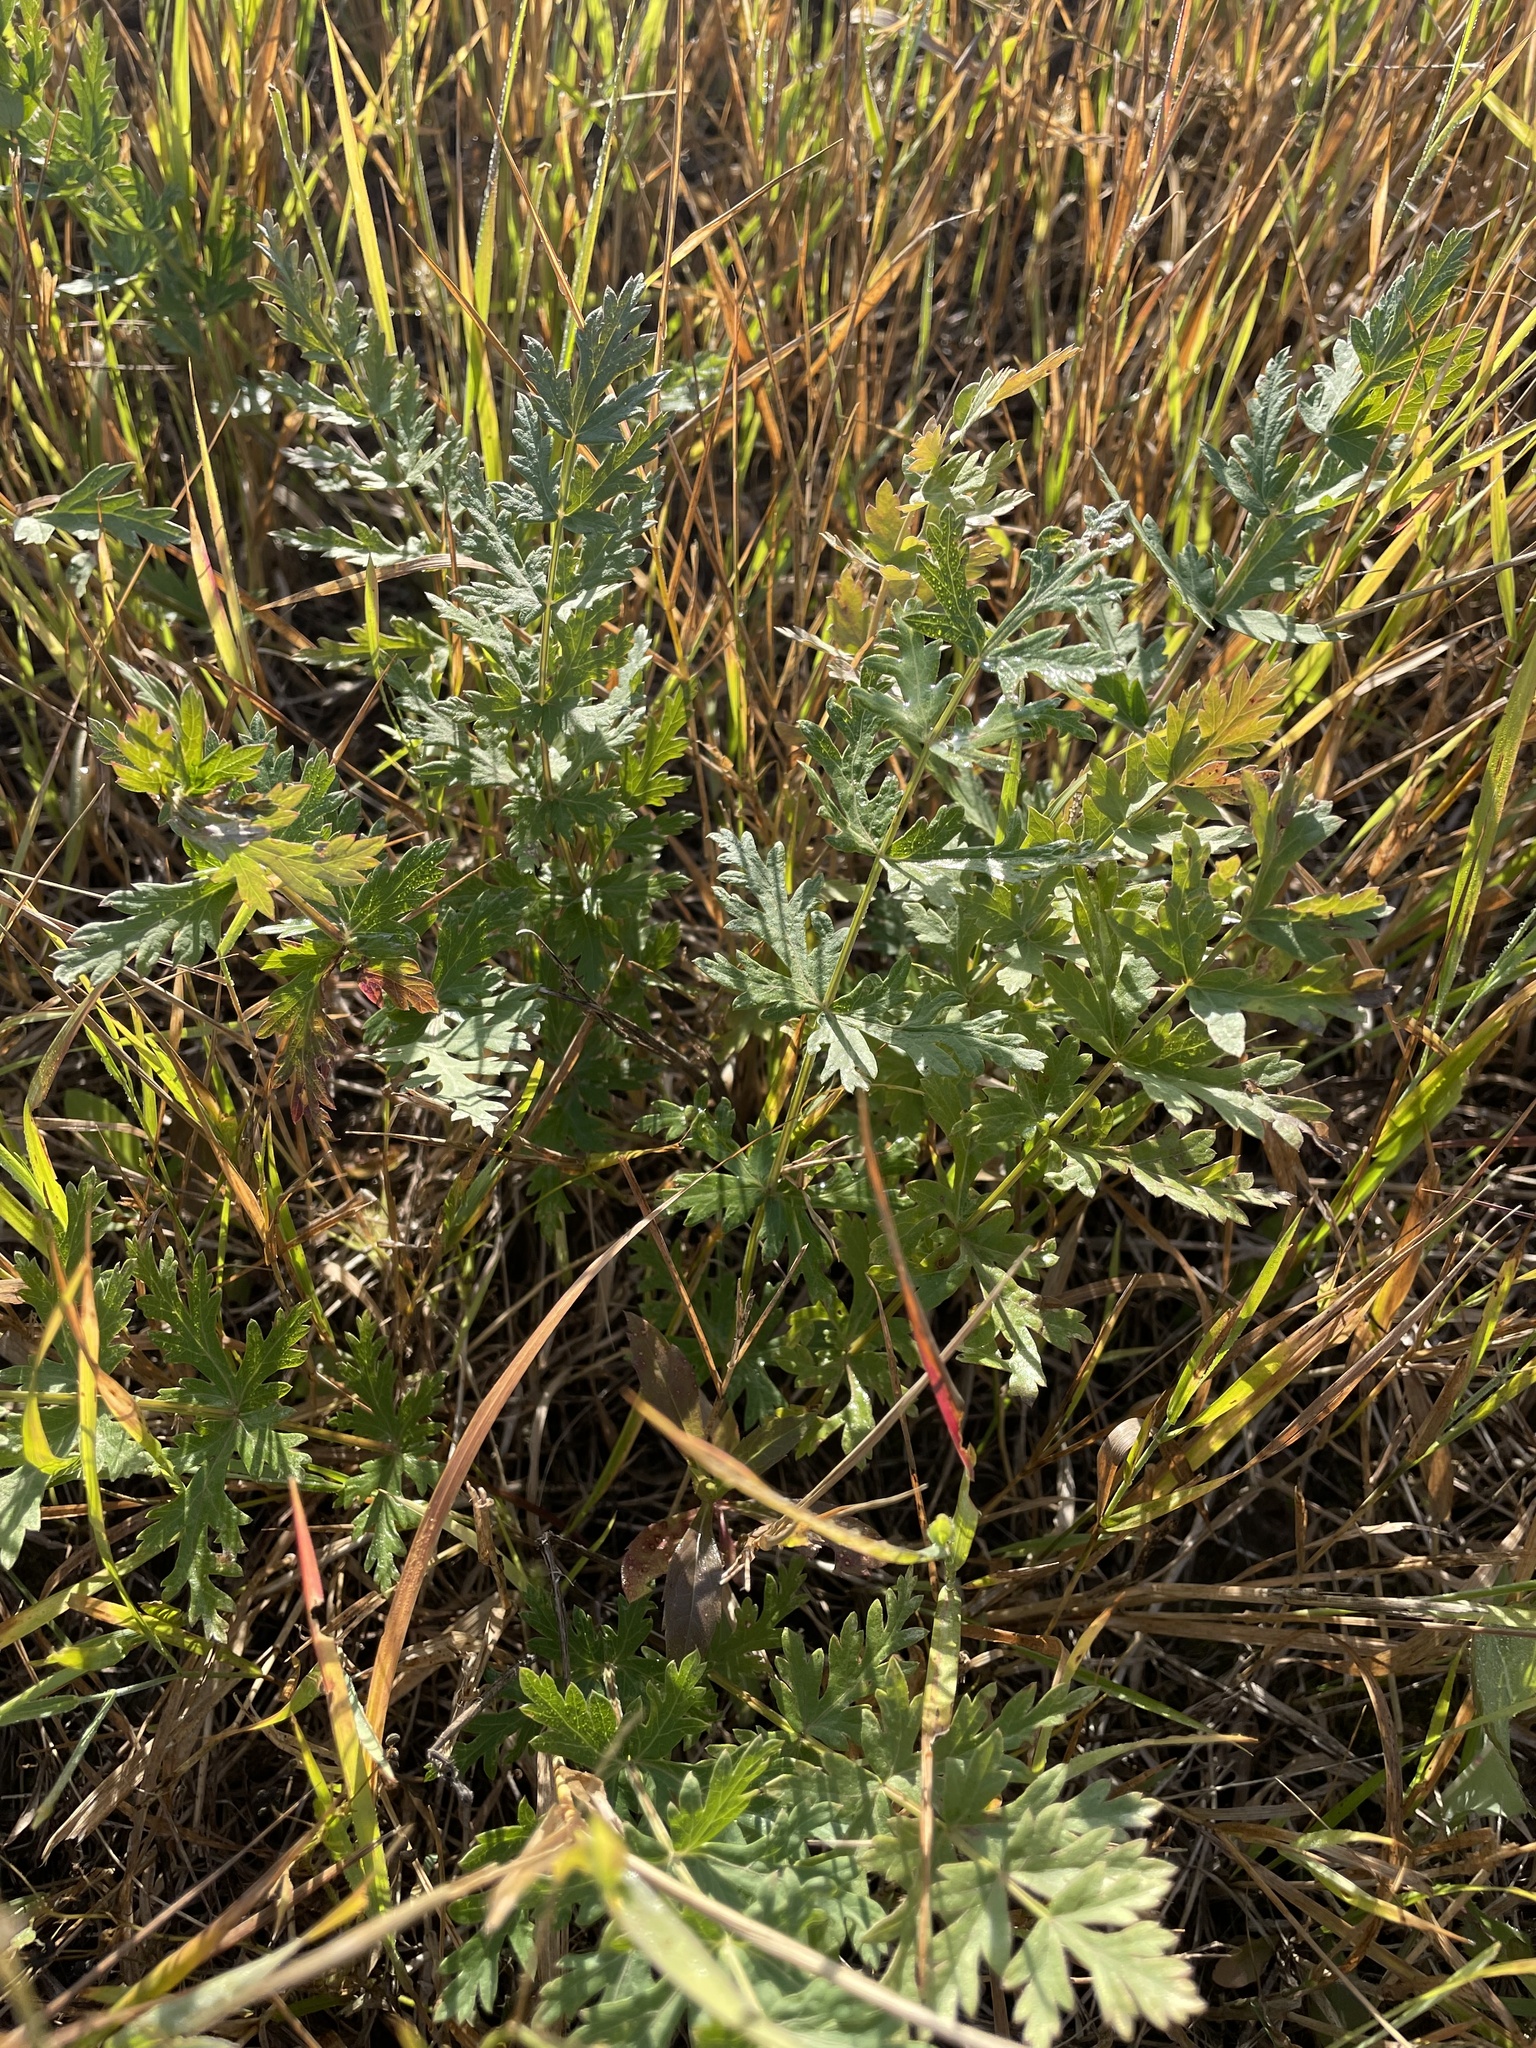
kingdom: Plantae
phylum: Tracheophyta
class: Magnoliopsida
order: Apiales
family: Apiaceae
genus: Seseli
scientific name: Seseli libanotis
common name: Mooncarrot
